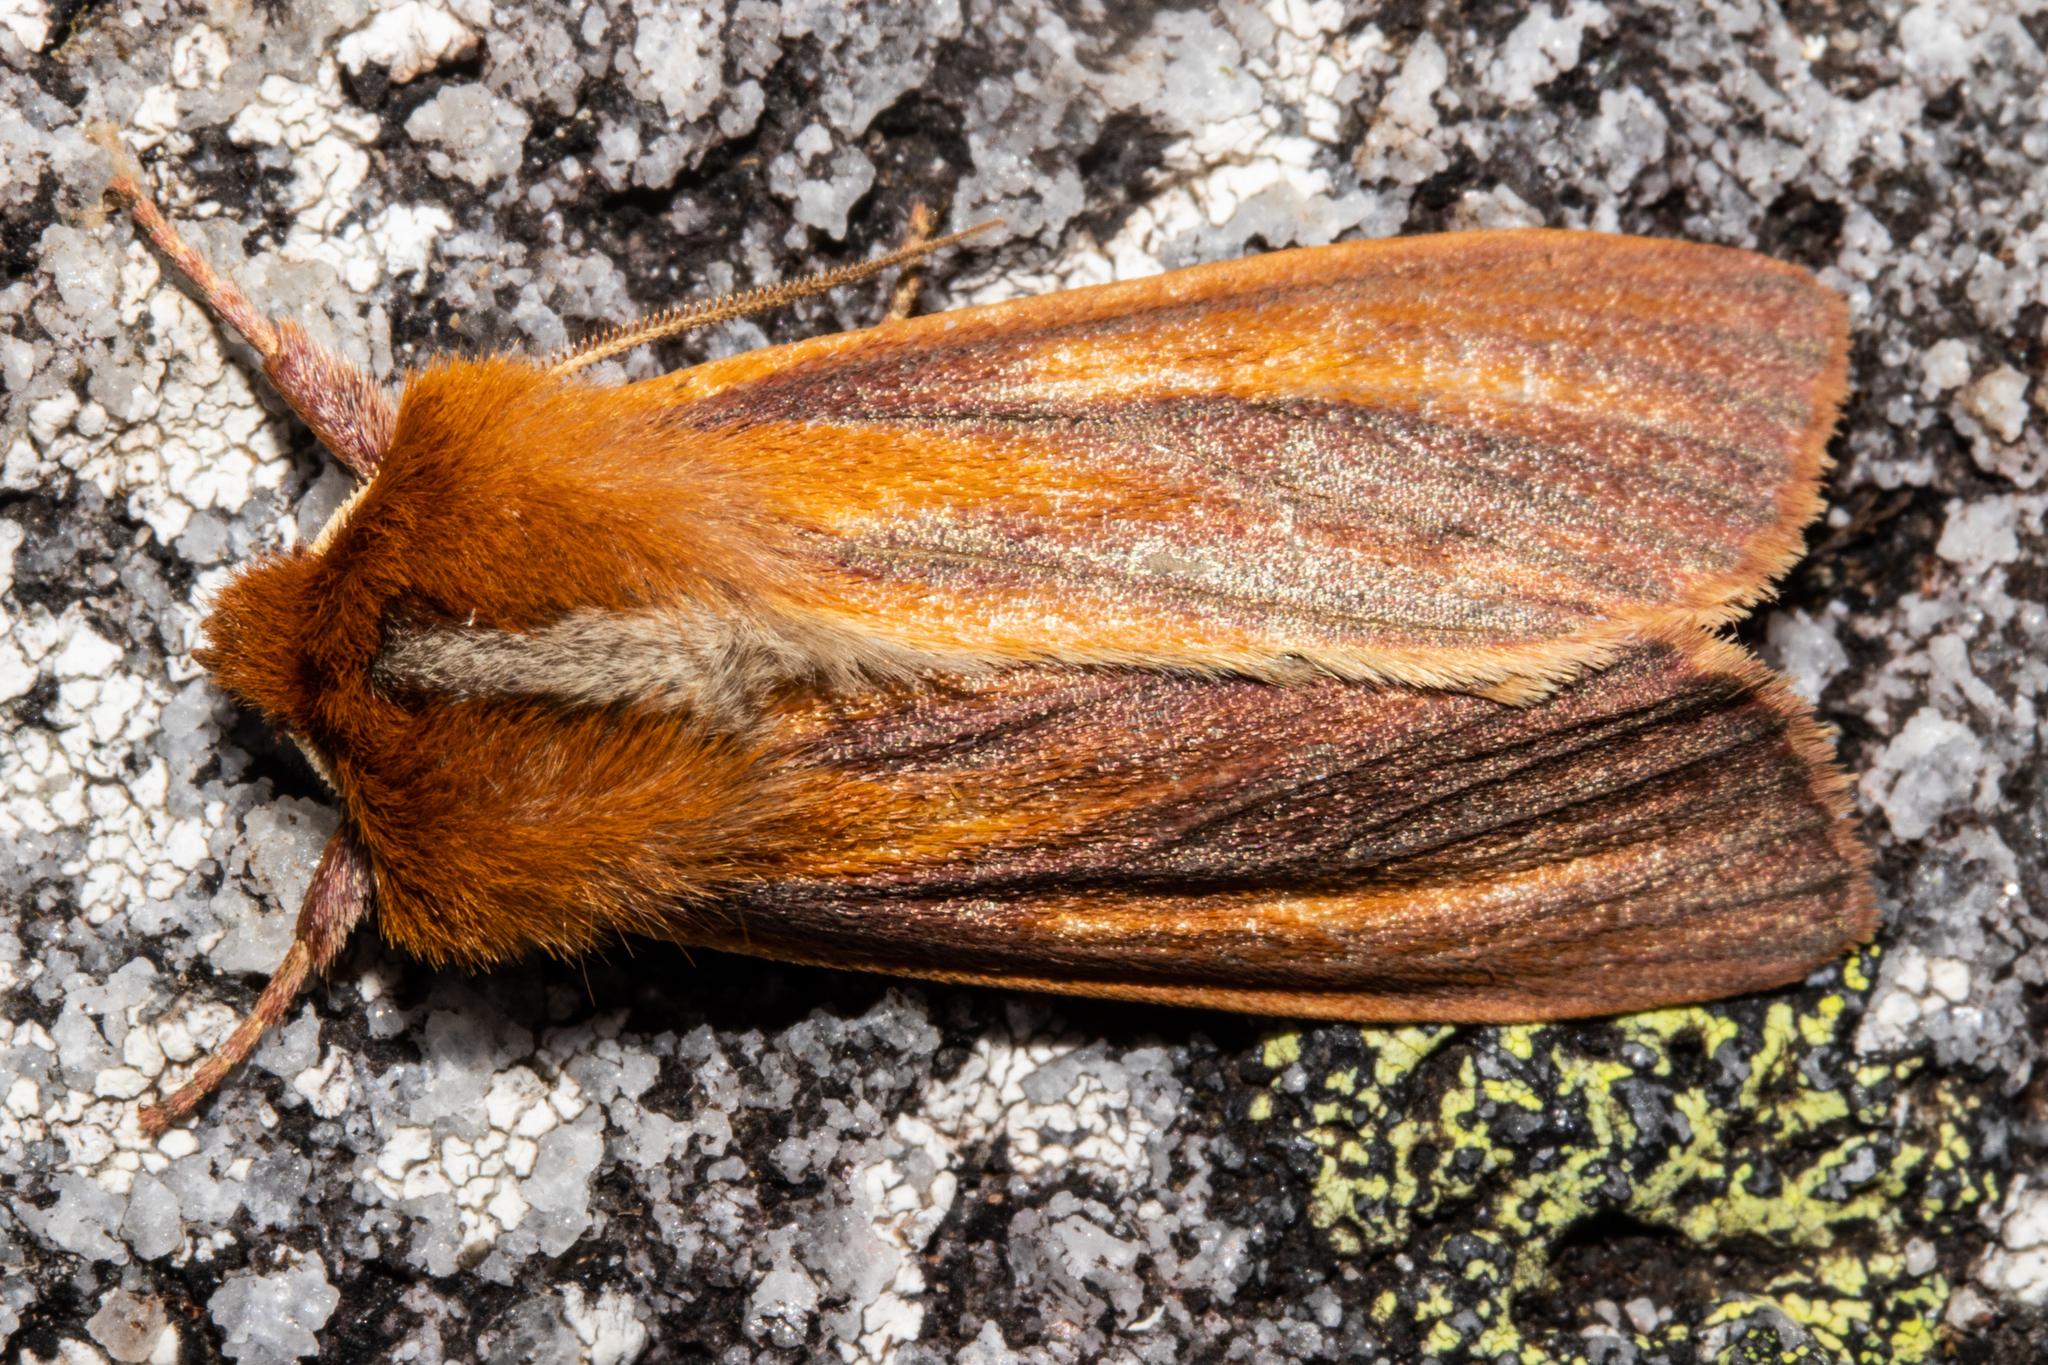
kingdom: Animalia
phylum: Arthropoda
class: Insecta
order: Lepidoptera
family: Noctuidae
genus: Ichneutica
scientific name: Ichneutica
